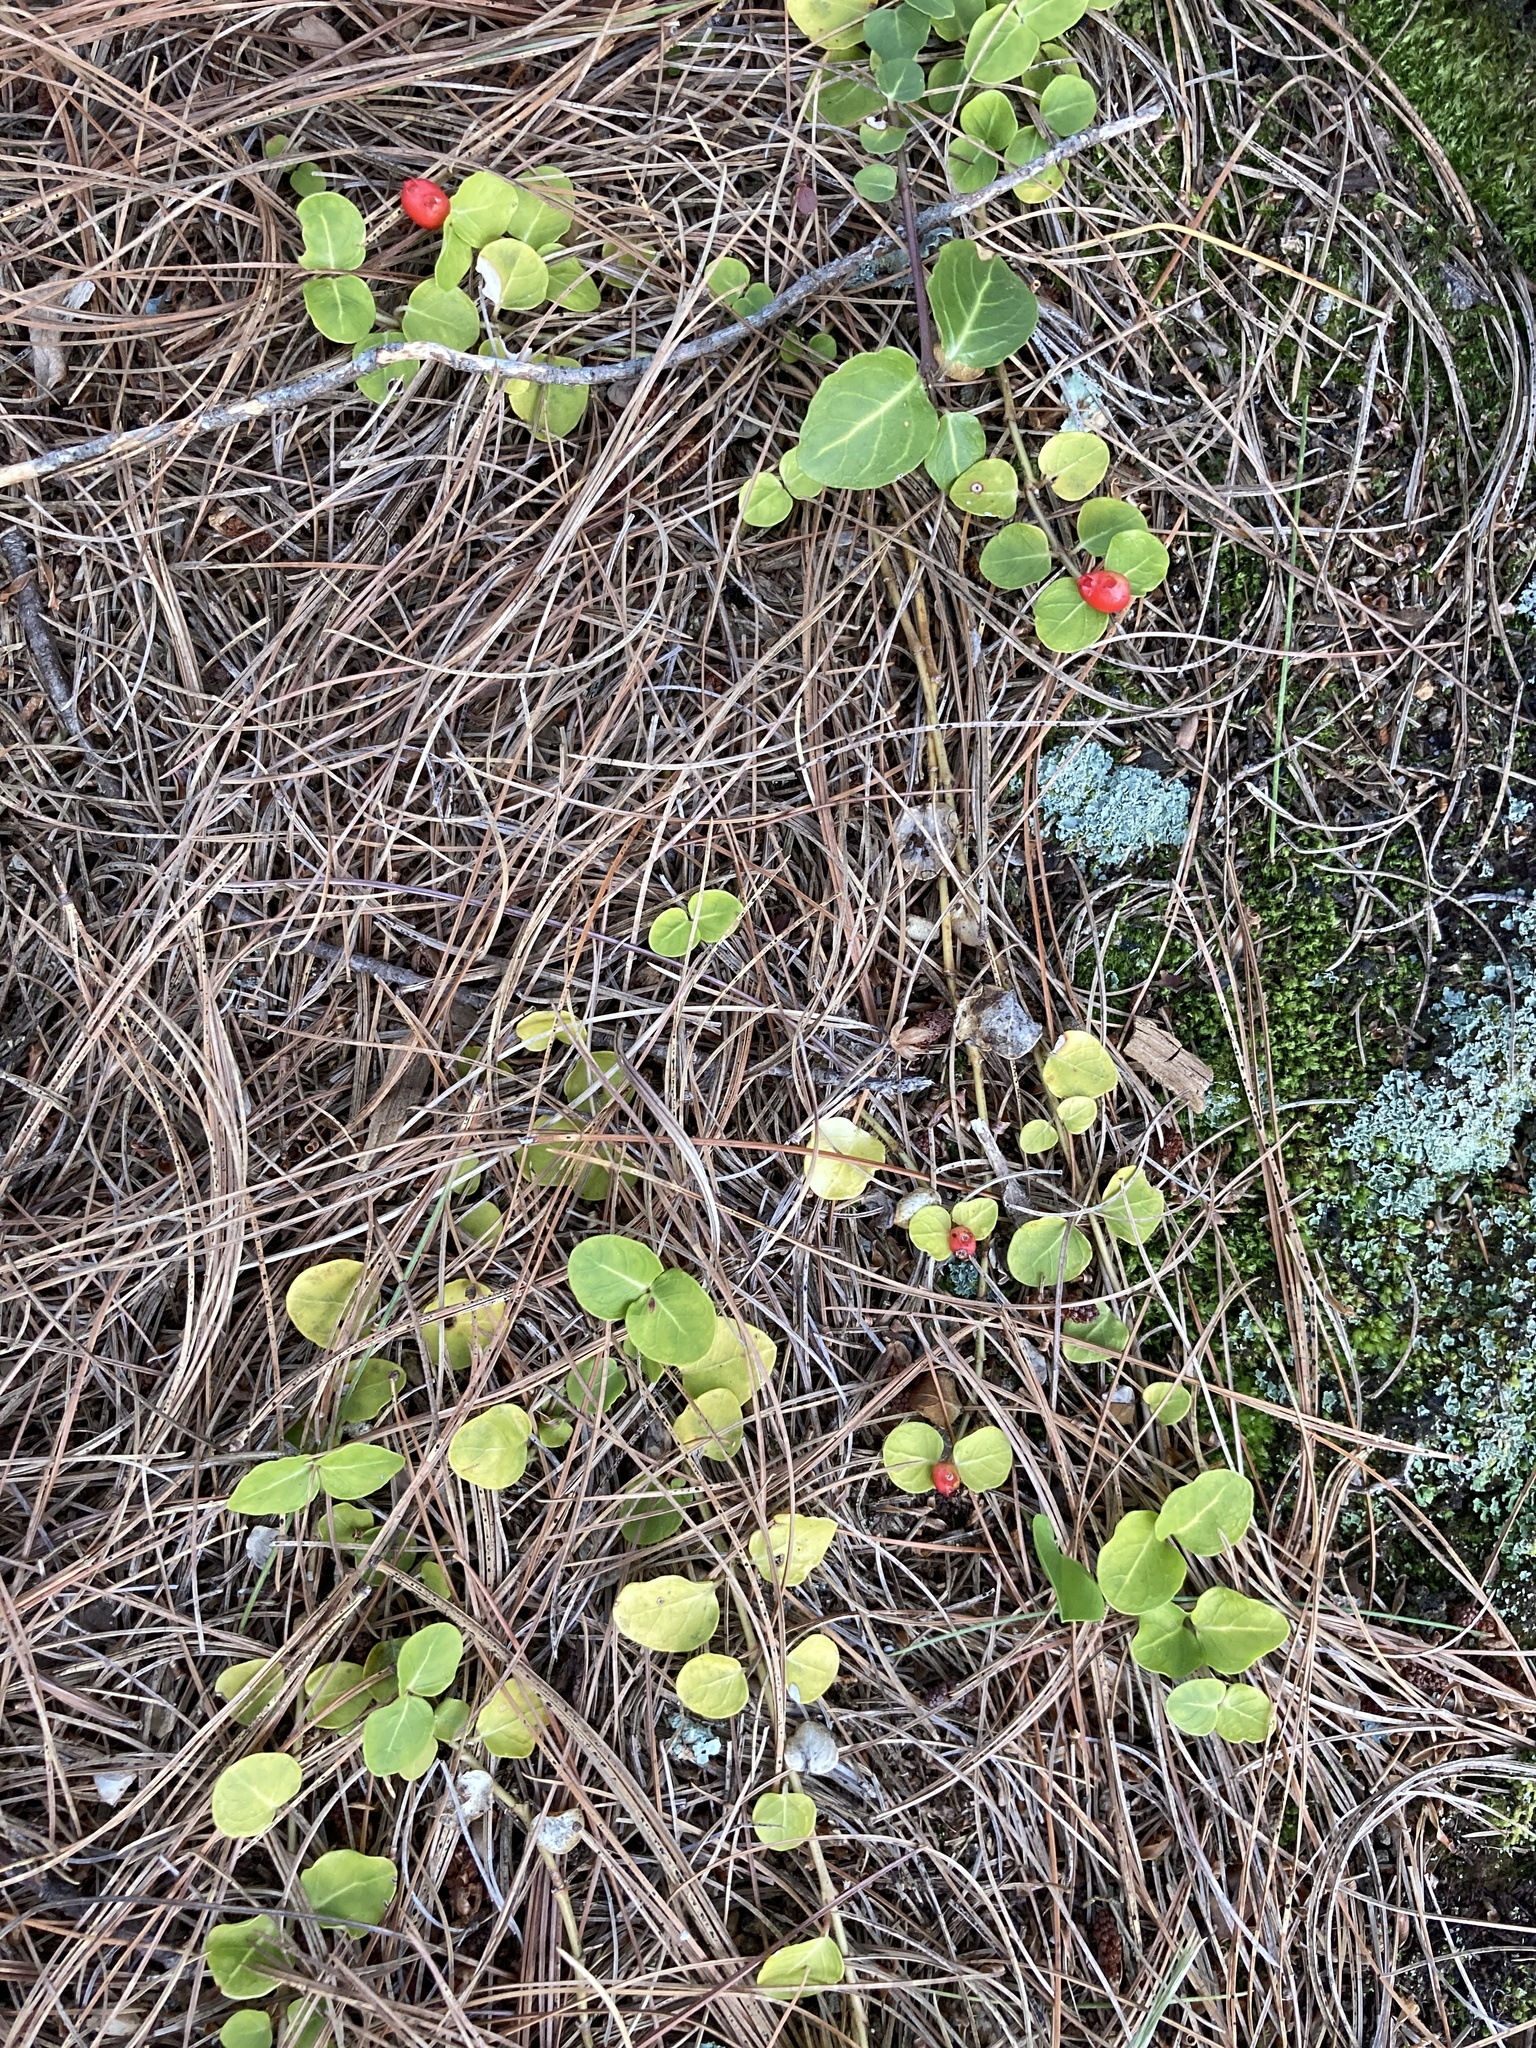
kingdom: Plantae
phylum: Tracheophyta
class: Magnoliopsida
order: Gentianales
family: Rubiaceae
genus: Mitchella
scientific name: Mitchella repens
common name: Partridge-berry
